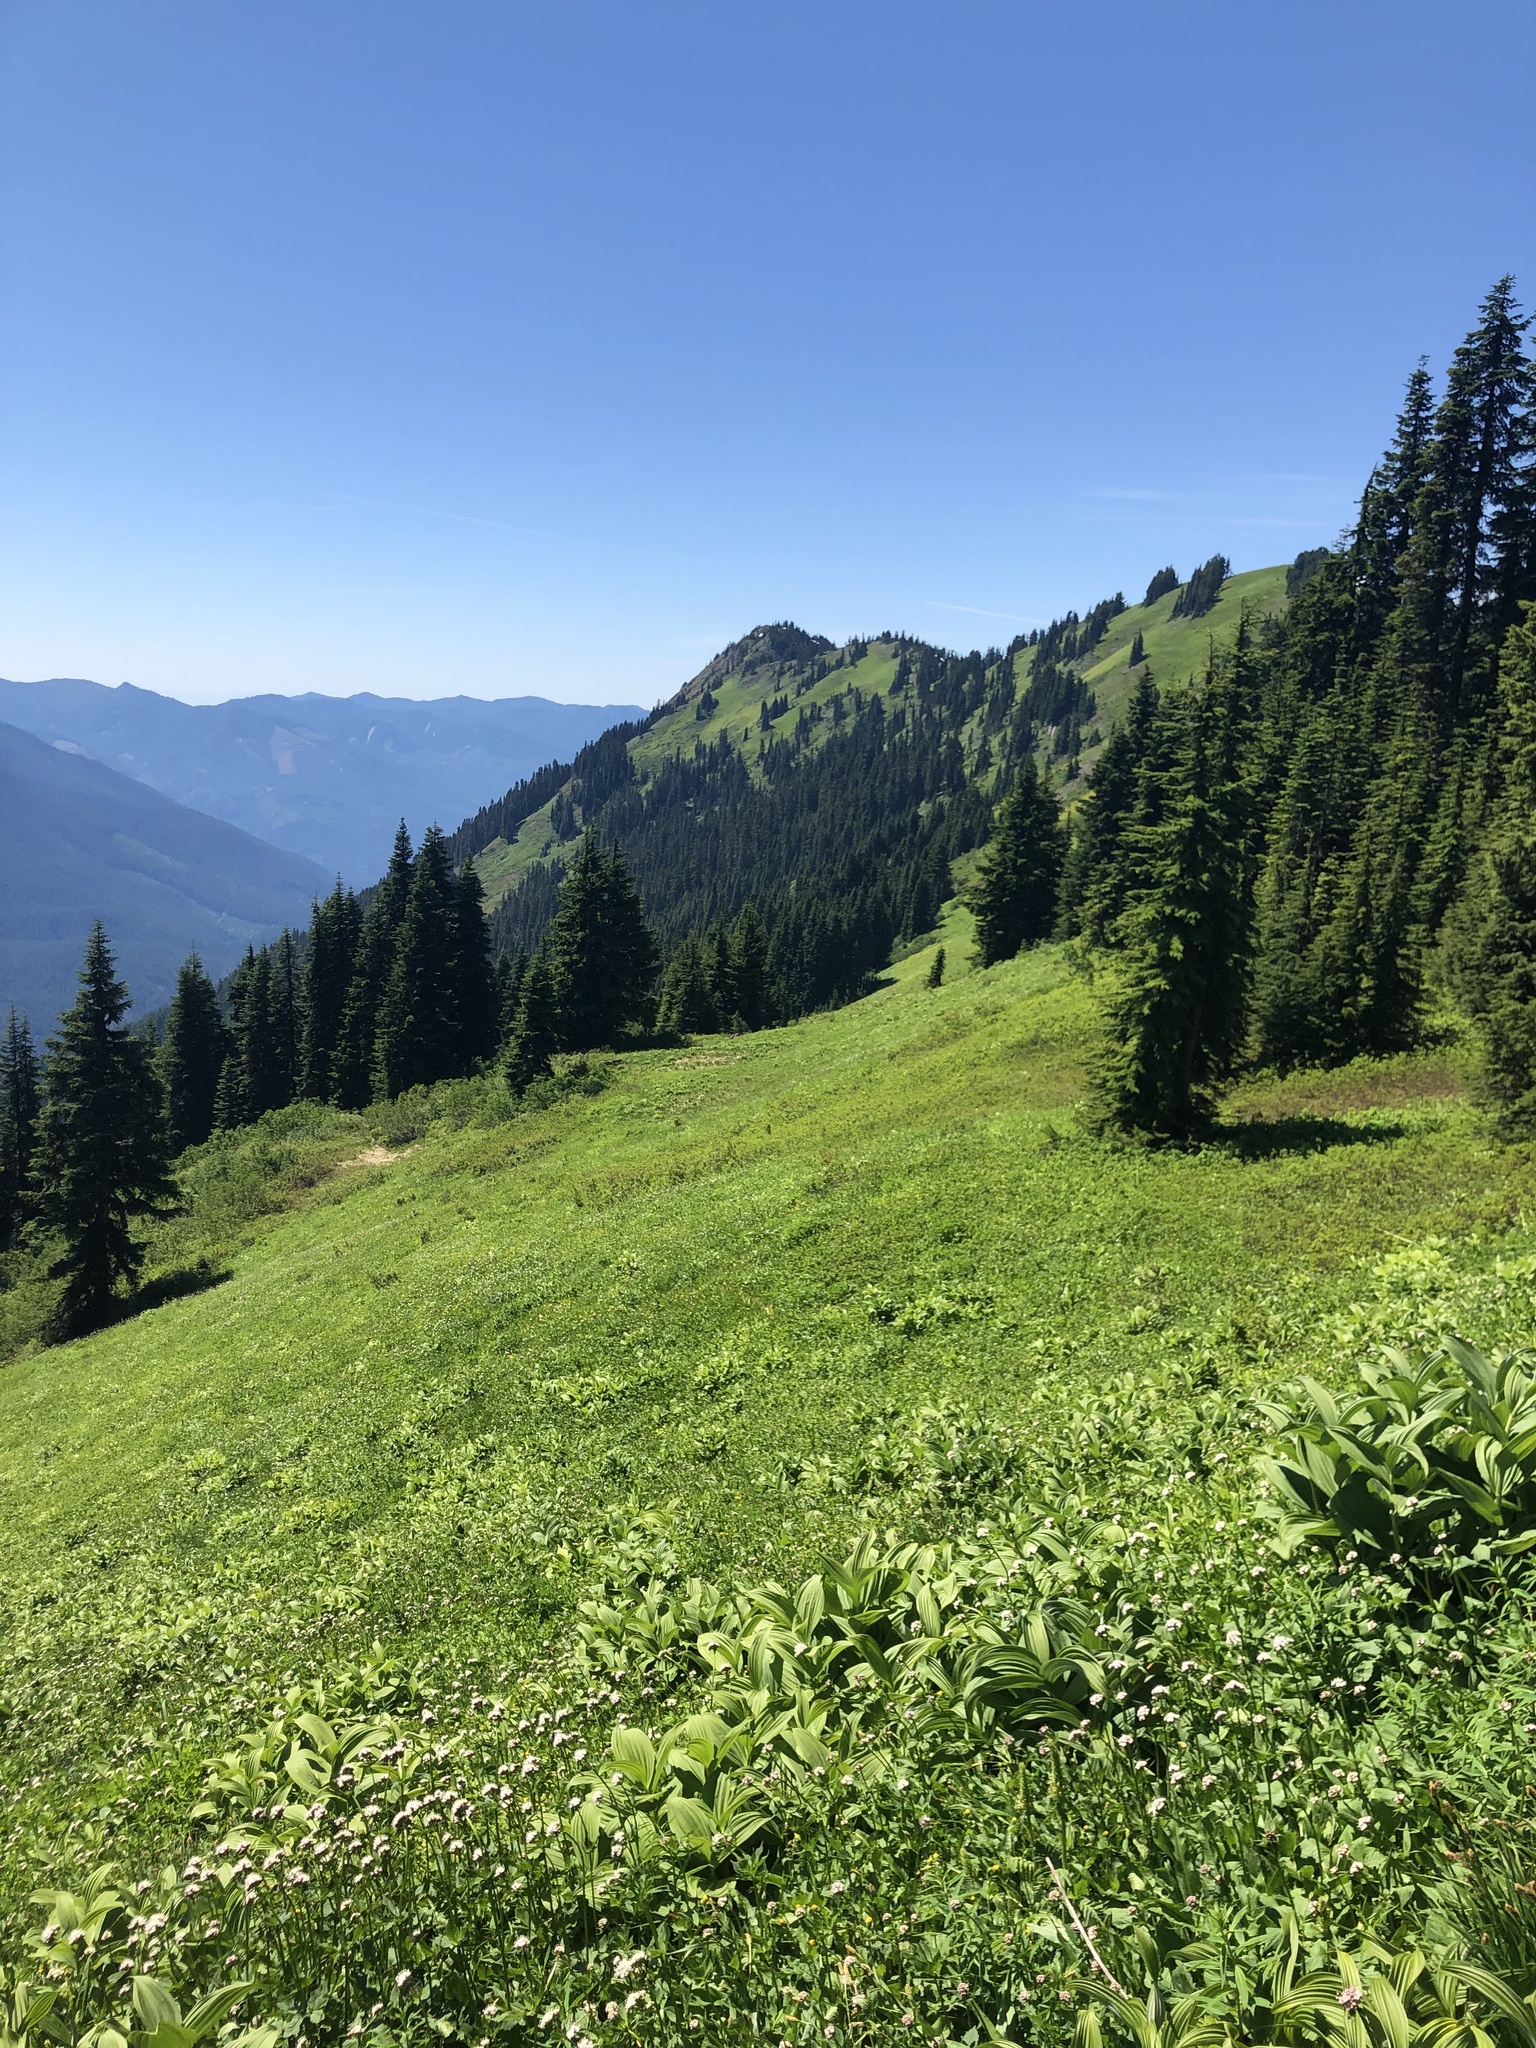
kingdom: Plantae
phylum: Tracheophyta
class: Liliopsida
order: Liliales
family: Melanthiaceae
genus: Veratrum
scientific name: Veratrum viride
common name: American false hellebore
